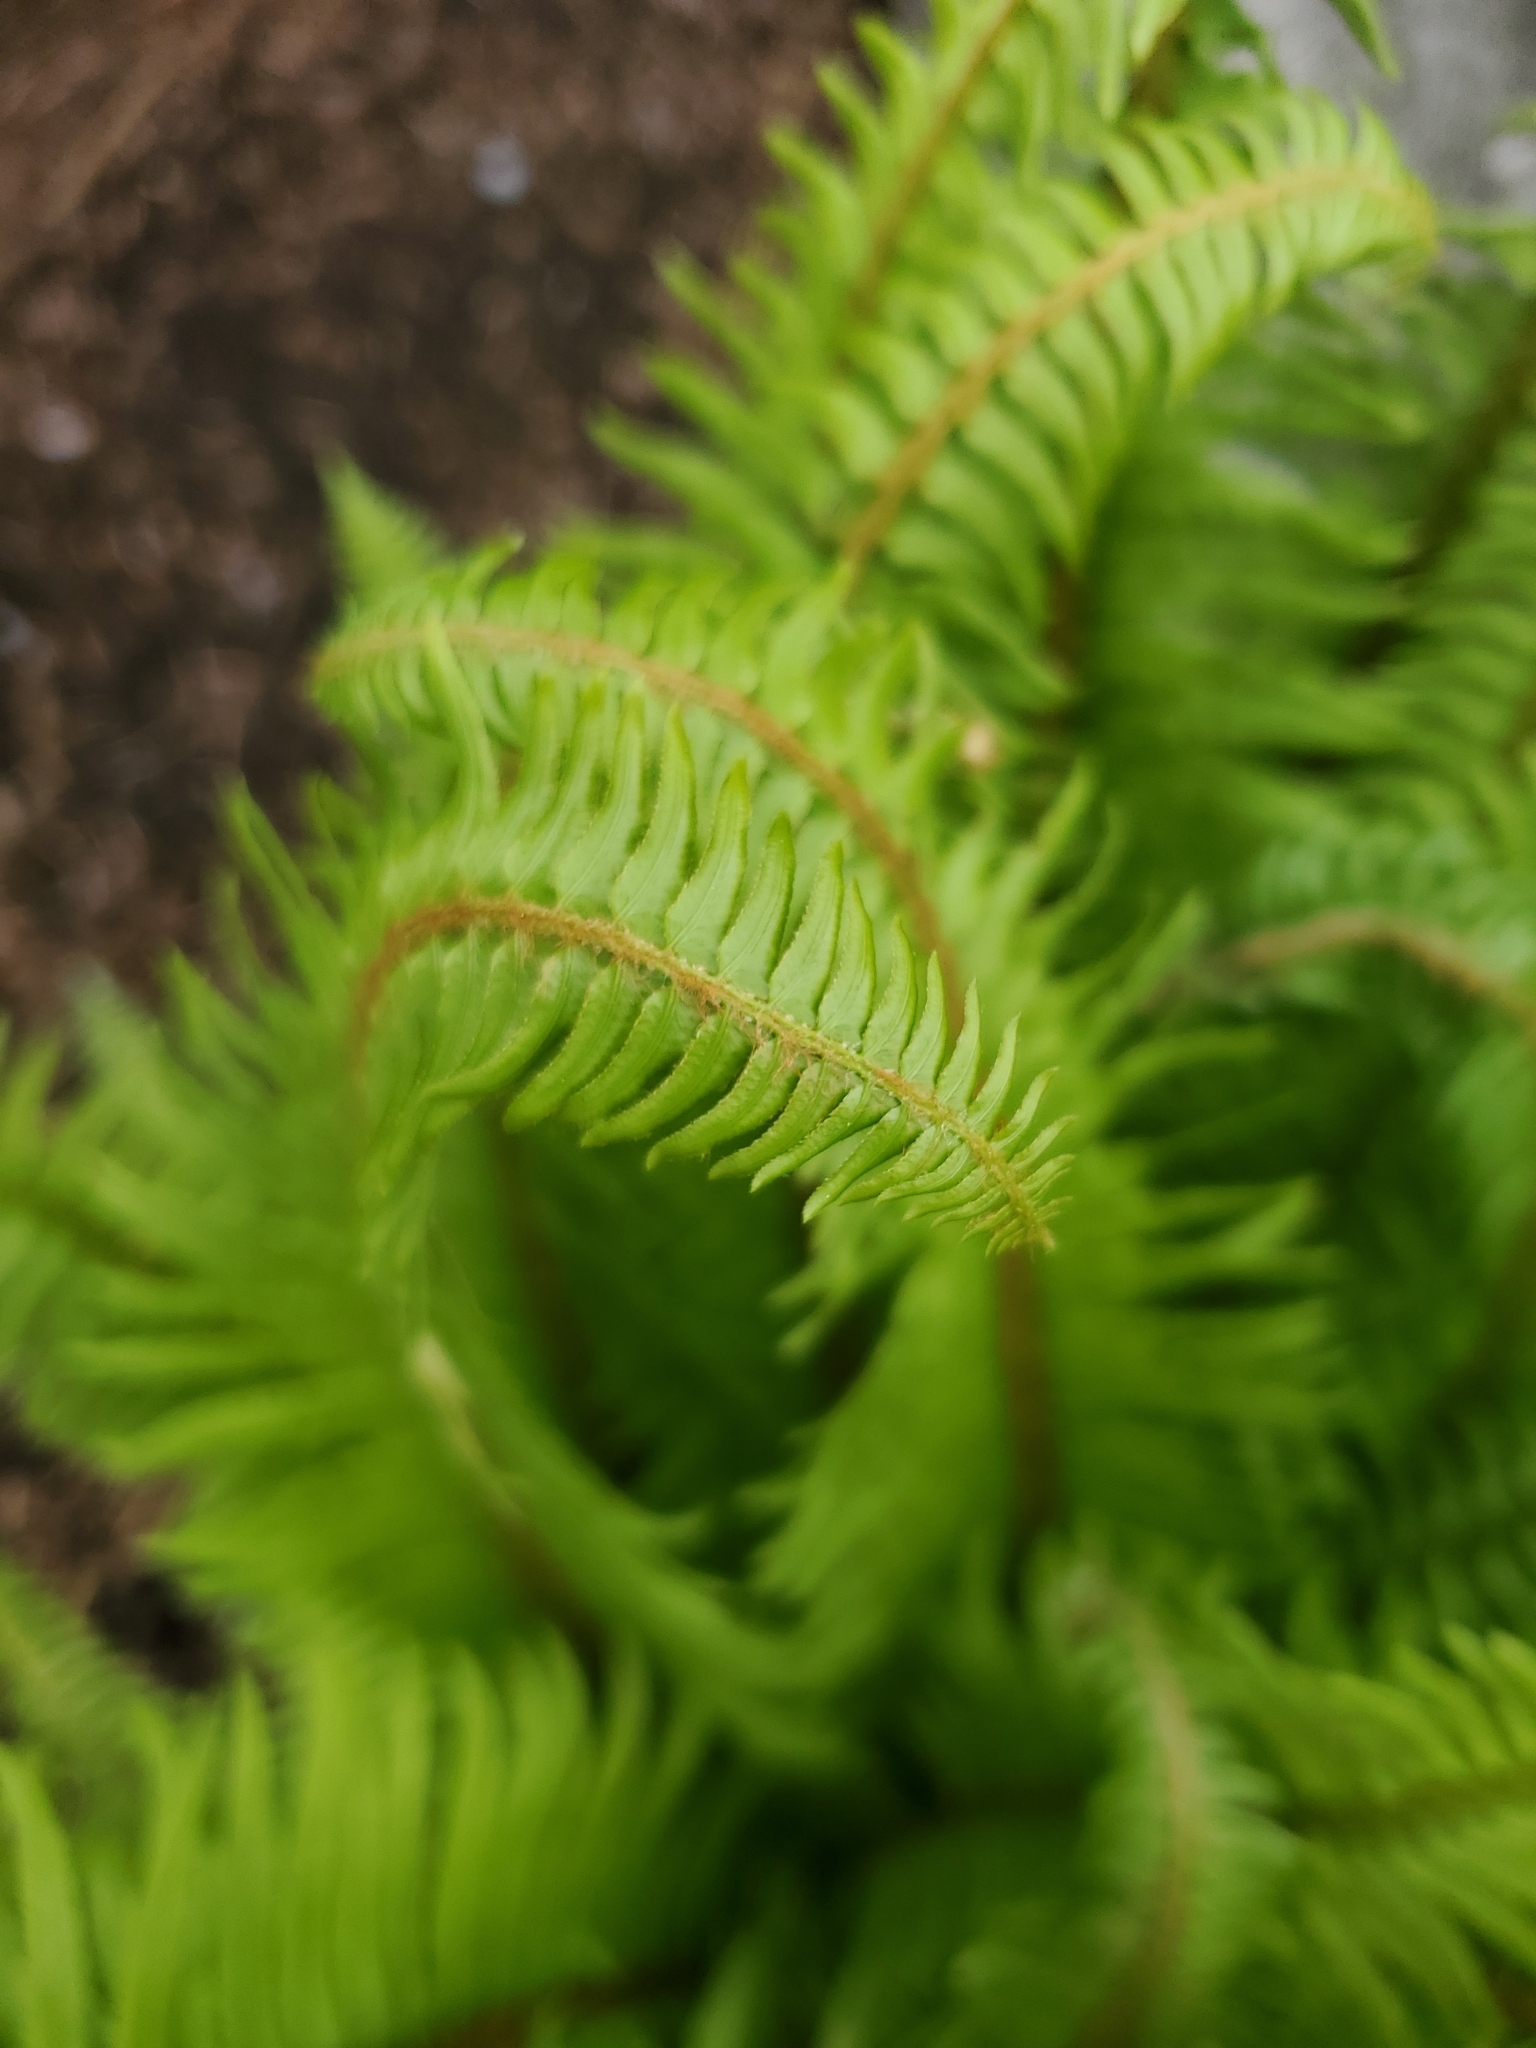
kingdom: Plantae
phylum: Tracheophyta
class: Polypodiopsida
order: Polypodiales
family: Dryopteridaceae
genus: Polystichum
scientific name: Polystichum munitum
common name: Western sword-fern
